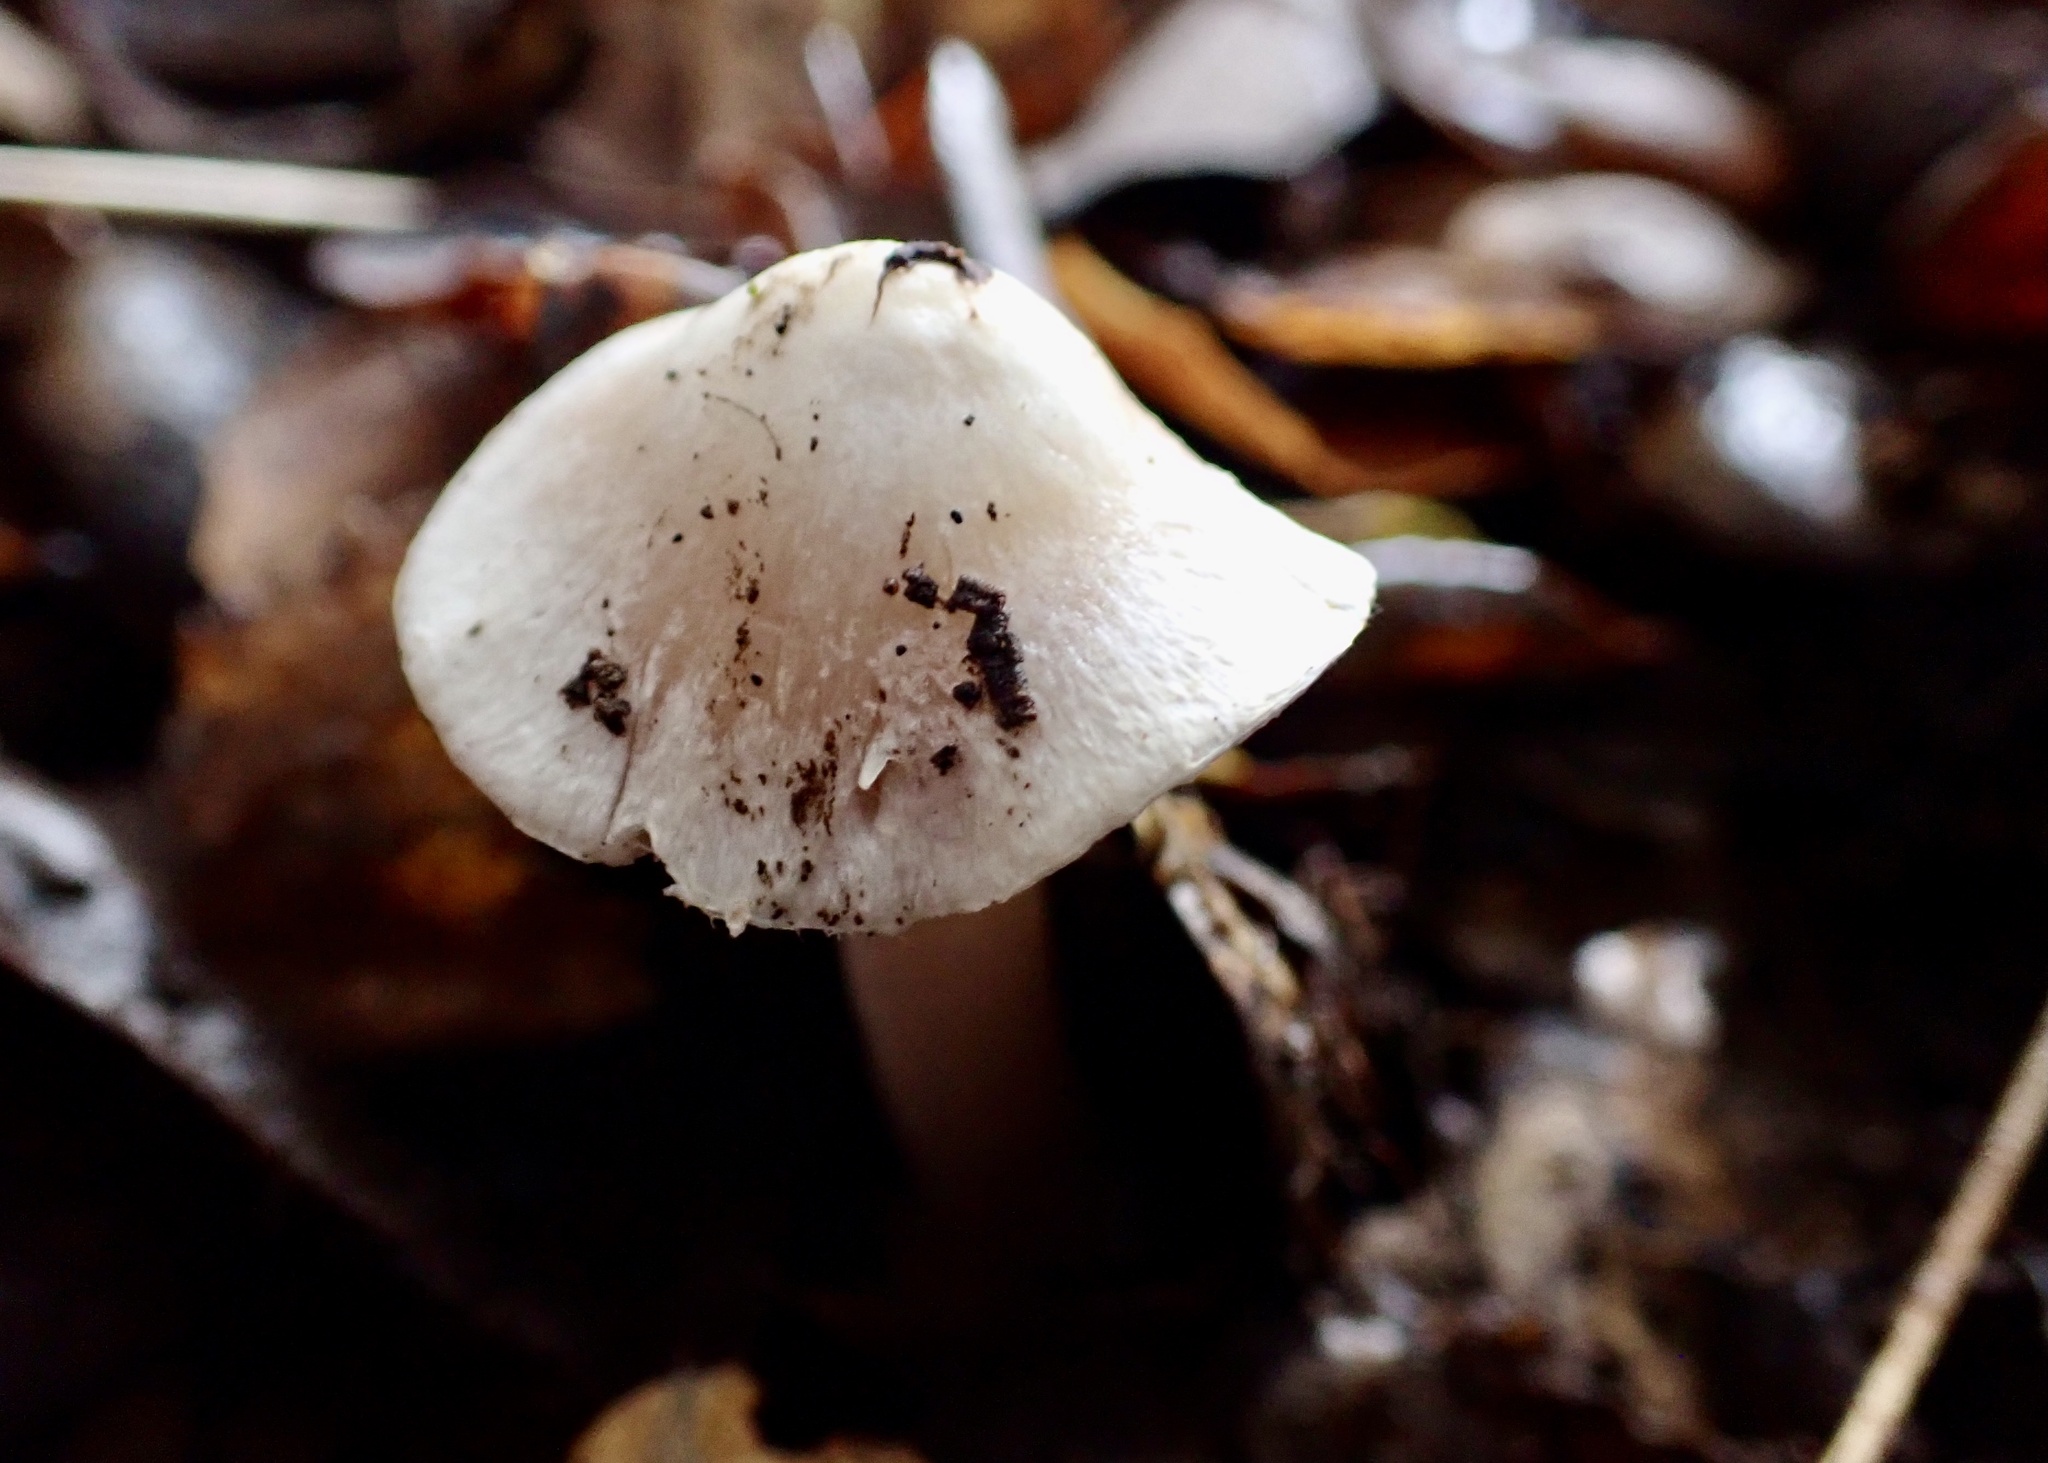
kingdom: Fungi
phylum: Basidiomycota
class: Agaricomycetes
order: Agaricales
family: Inocybaceae
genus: Inocybe
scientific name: Inocybe insinuata
